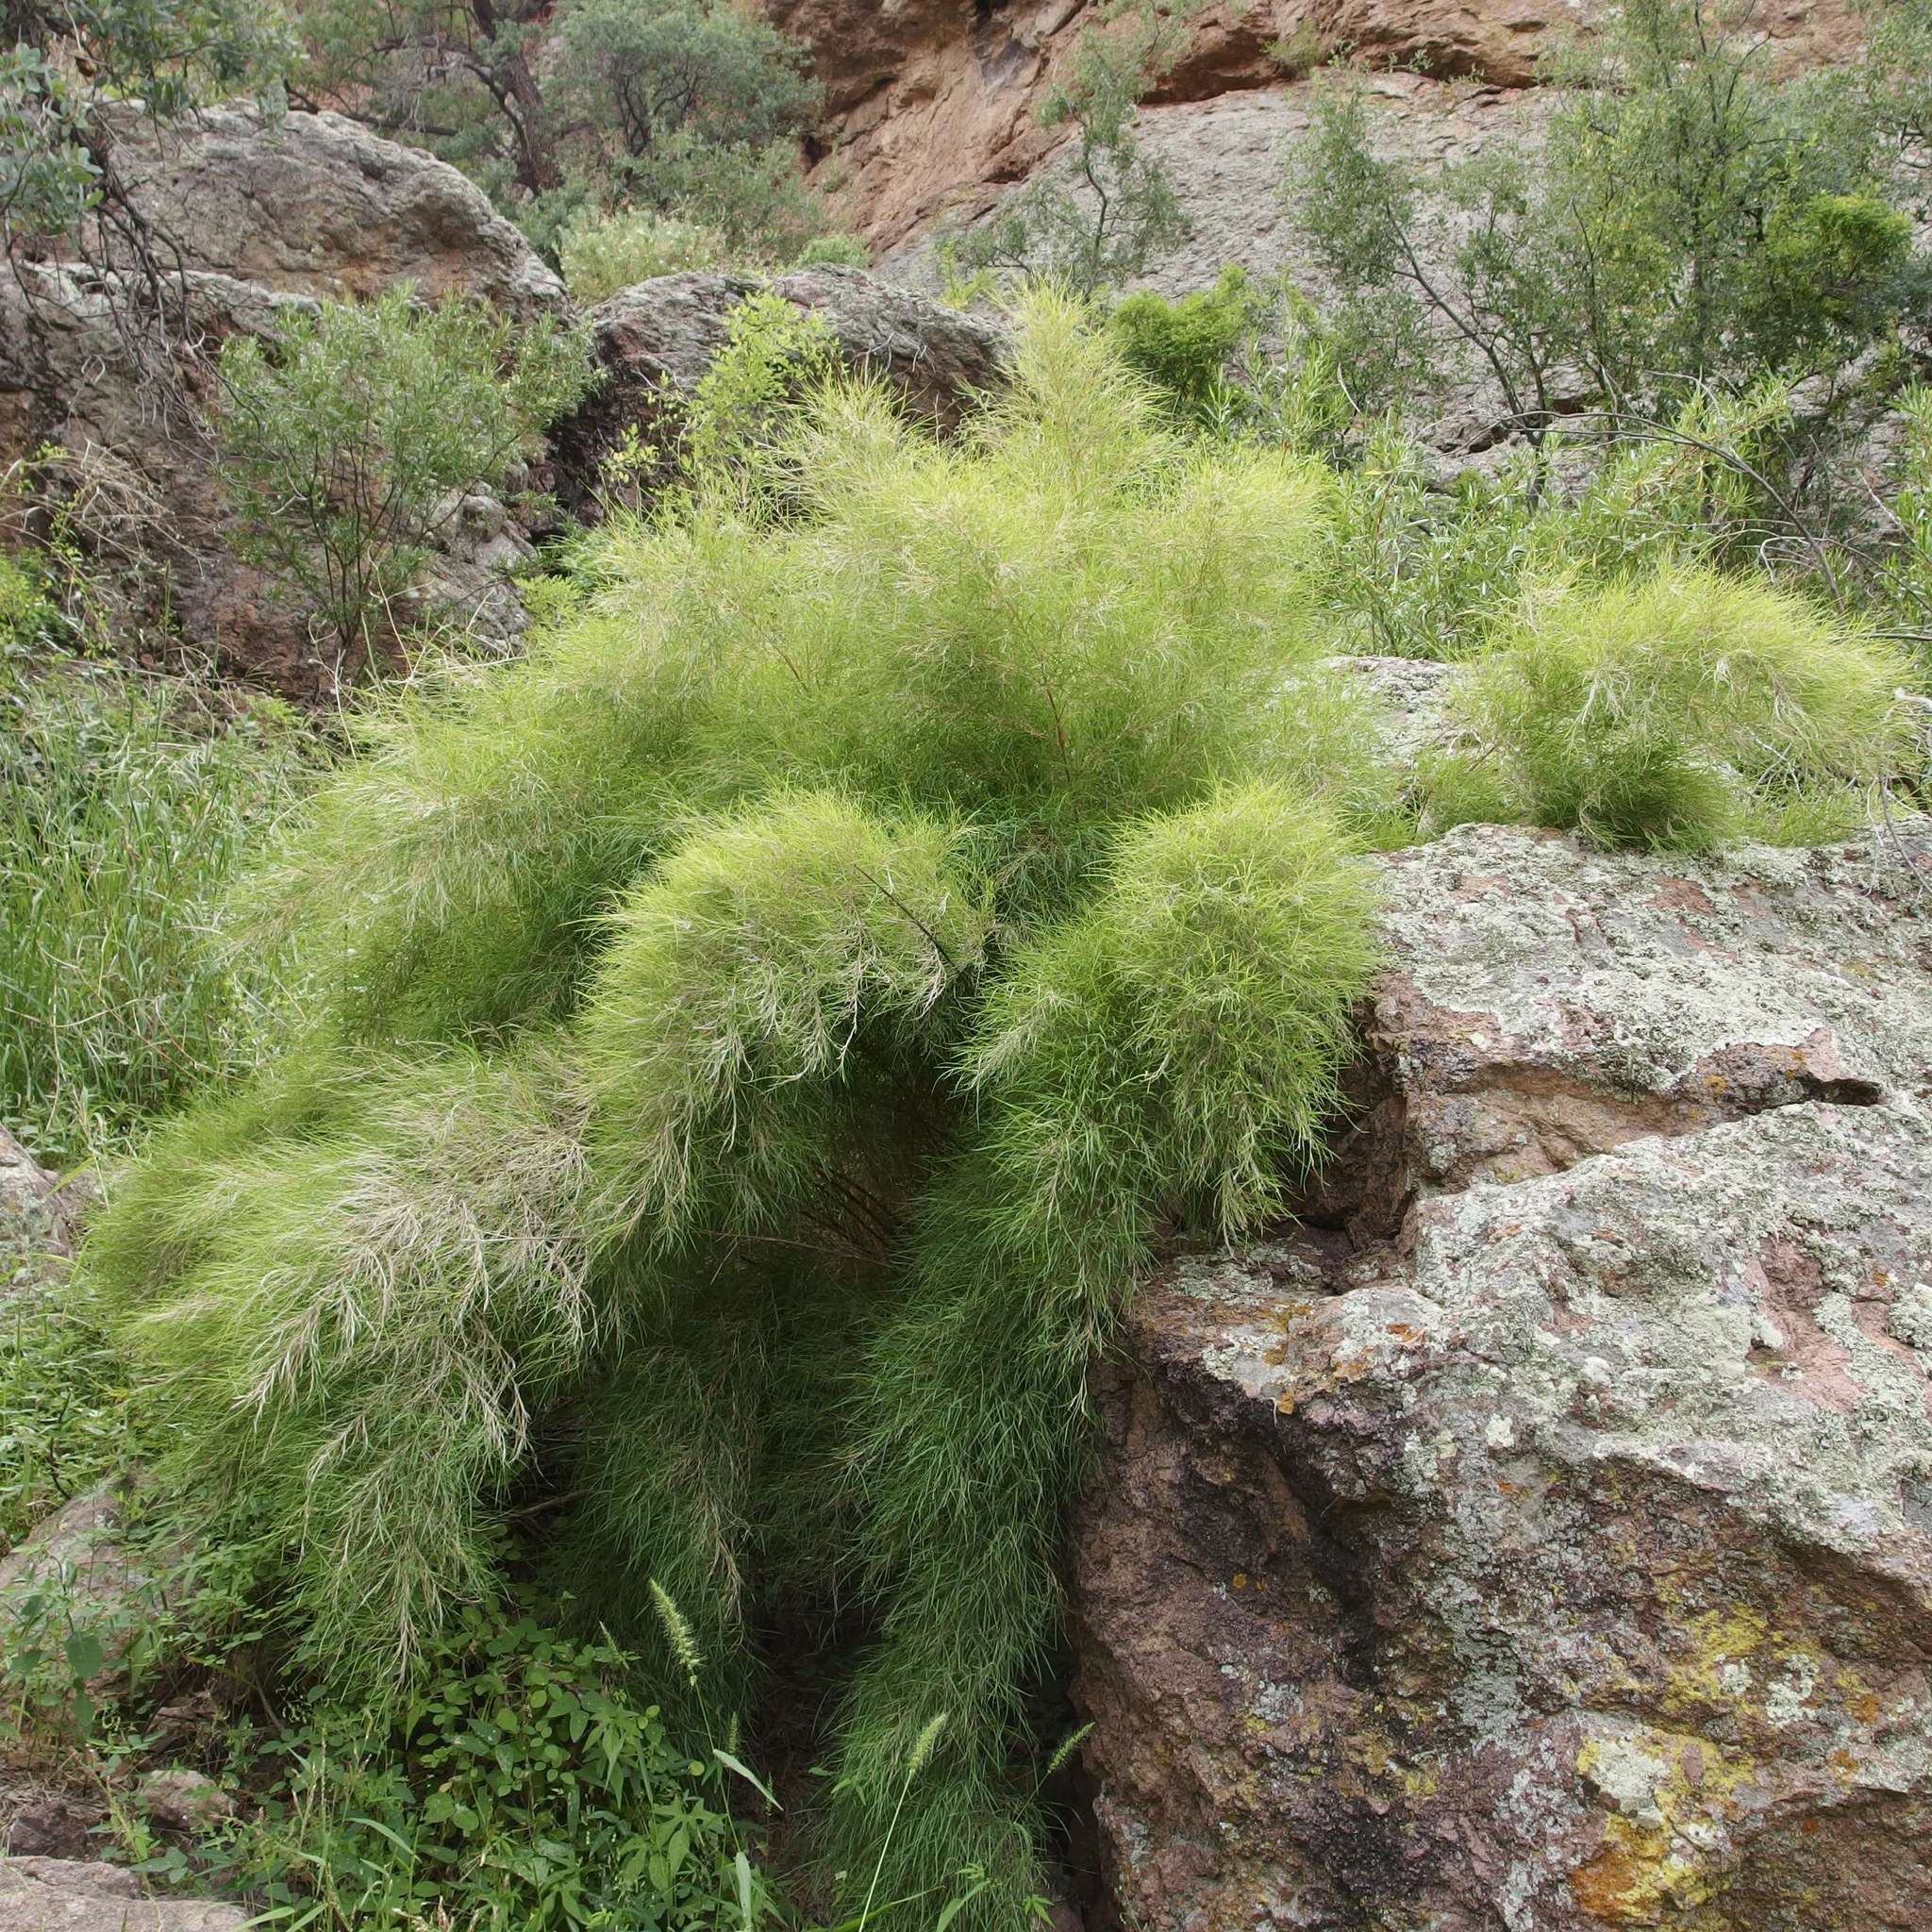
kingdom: Plantae
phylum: Tracheophyta
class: Liliopsida
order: Poales
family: Poaceae
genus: Muhlenbergia
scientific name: Muhlenbergia dumosa
